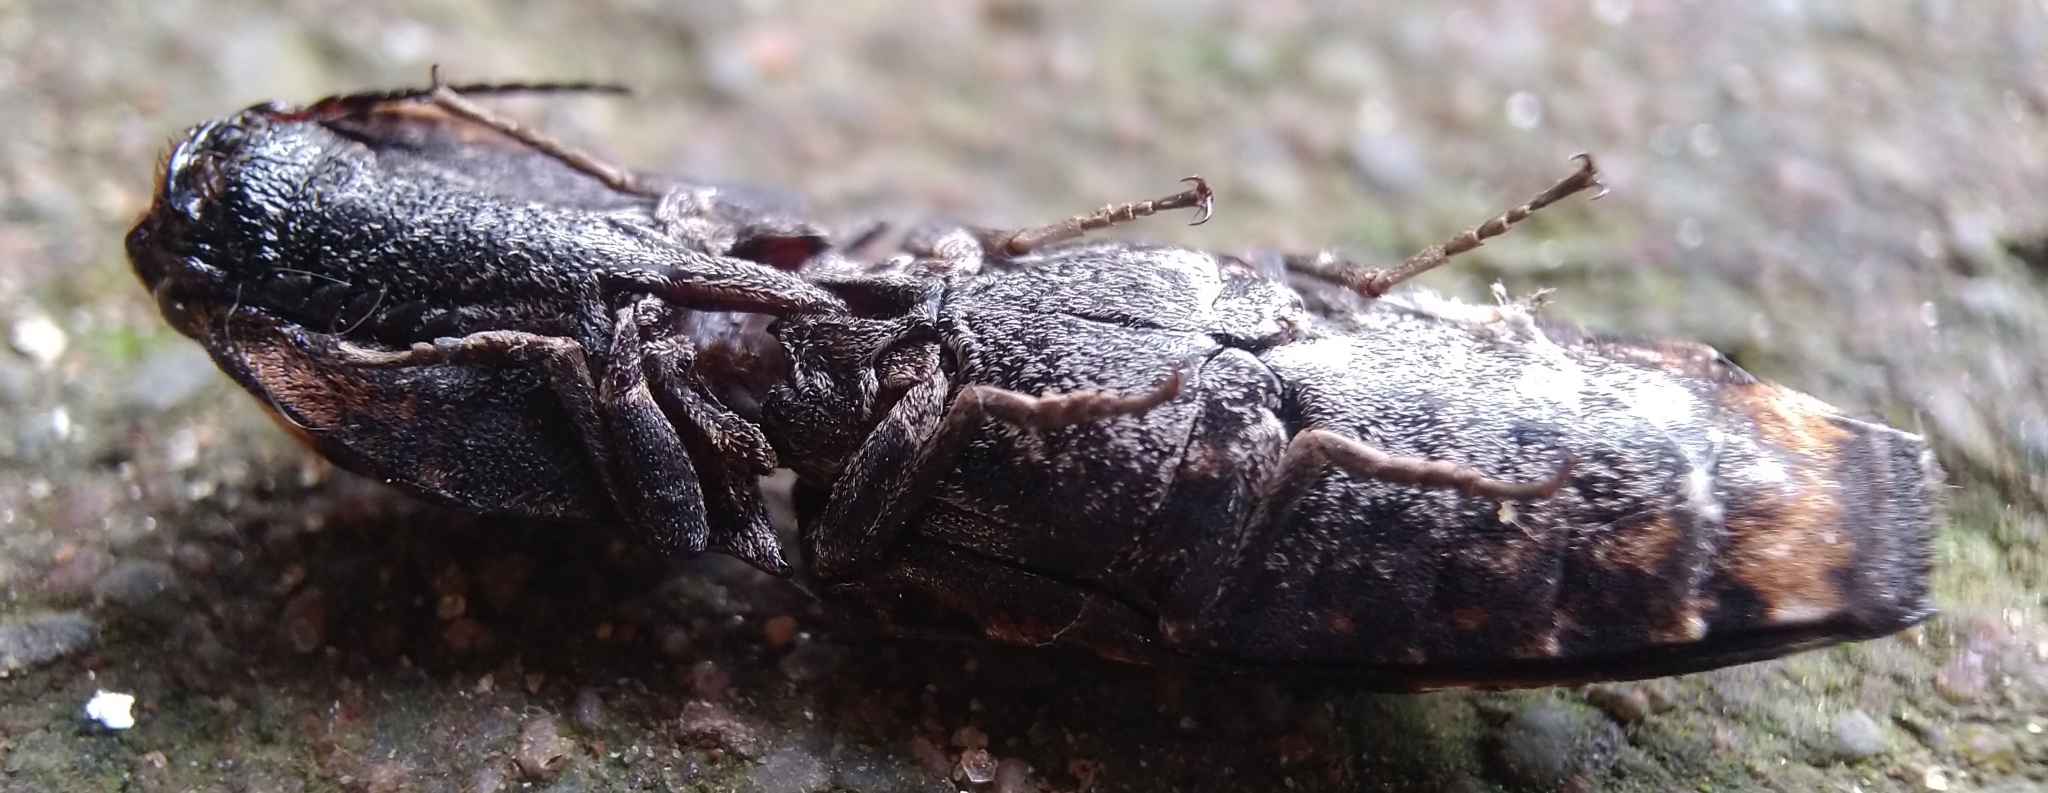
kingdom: Animalia
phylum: Arthropoda
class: Insecta
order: Coleoptera
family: Elateridae
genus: Cryptalaus
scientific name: Cryptalaus alveolatus
